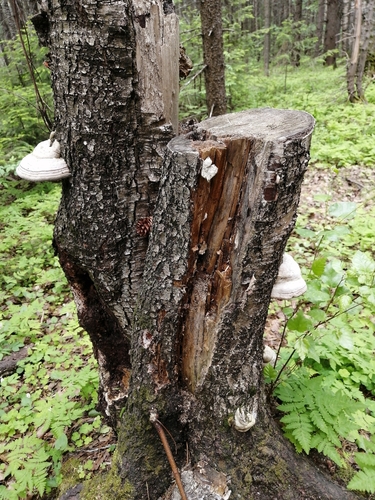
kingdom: Fungi
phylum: Basidiomycota
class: Agaricomycetes
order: Polyporales
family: Polyporaceae
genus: Fomes
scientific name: Fomes fomentarius
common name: Hoof fungus
